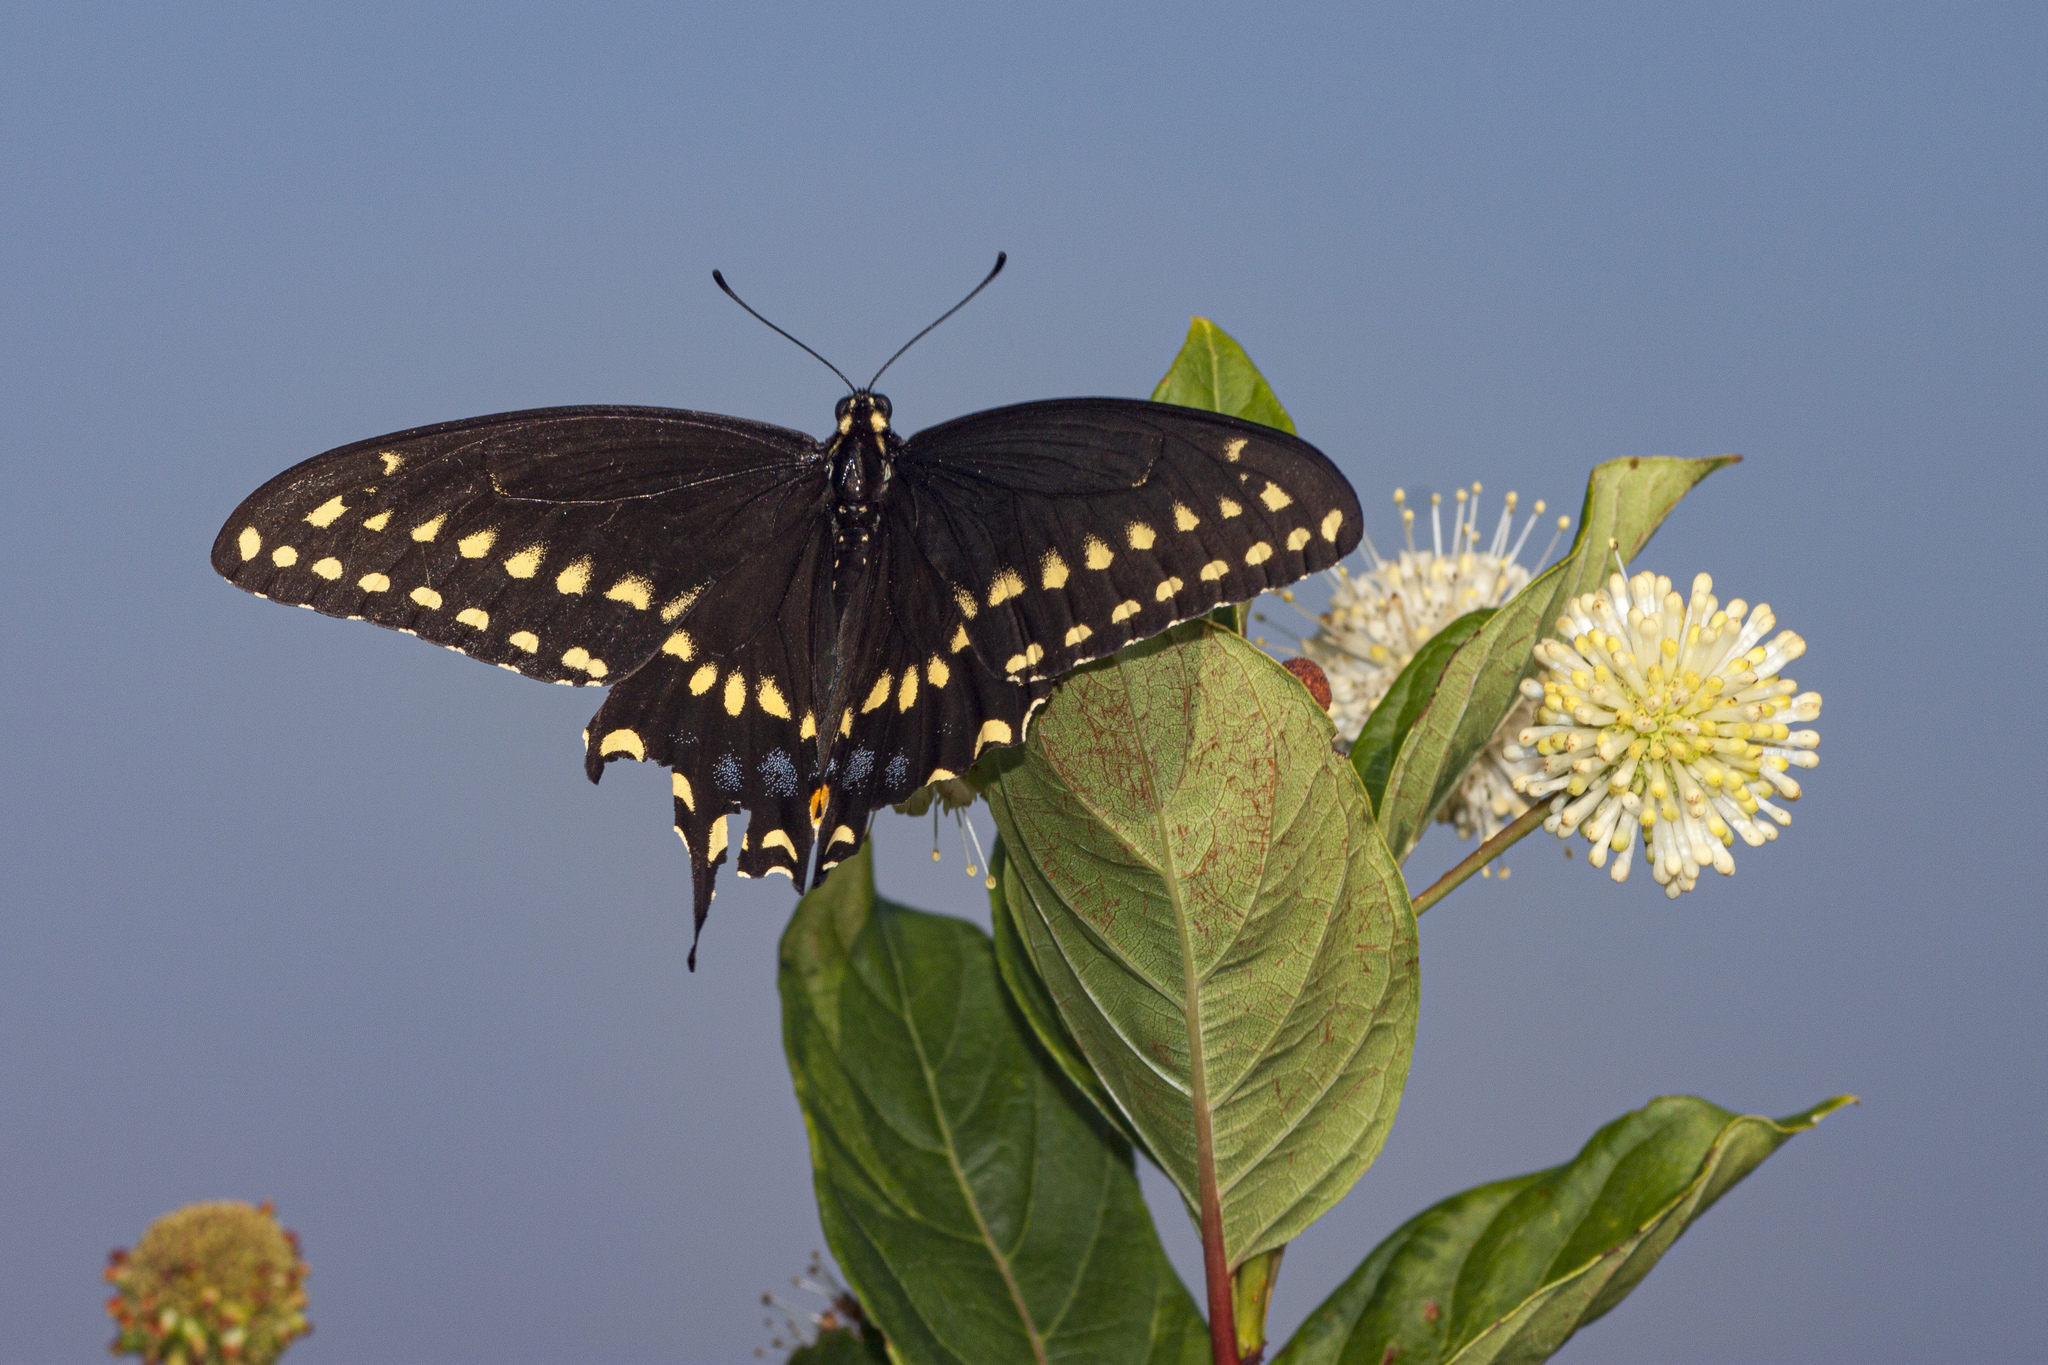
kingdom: Animalia
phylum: Arthropoda
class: Insecta
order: Lepidoptera
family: Papilionidae
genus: Papilio
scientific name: Papilio polyxenes
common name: Black swallowtail
